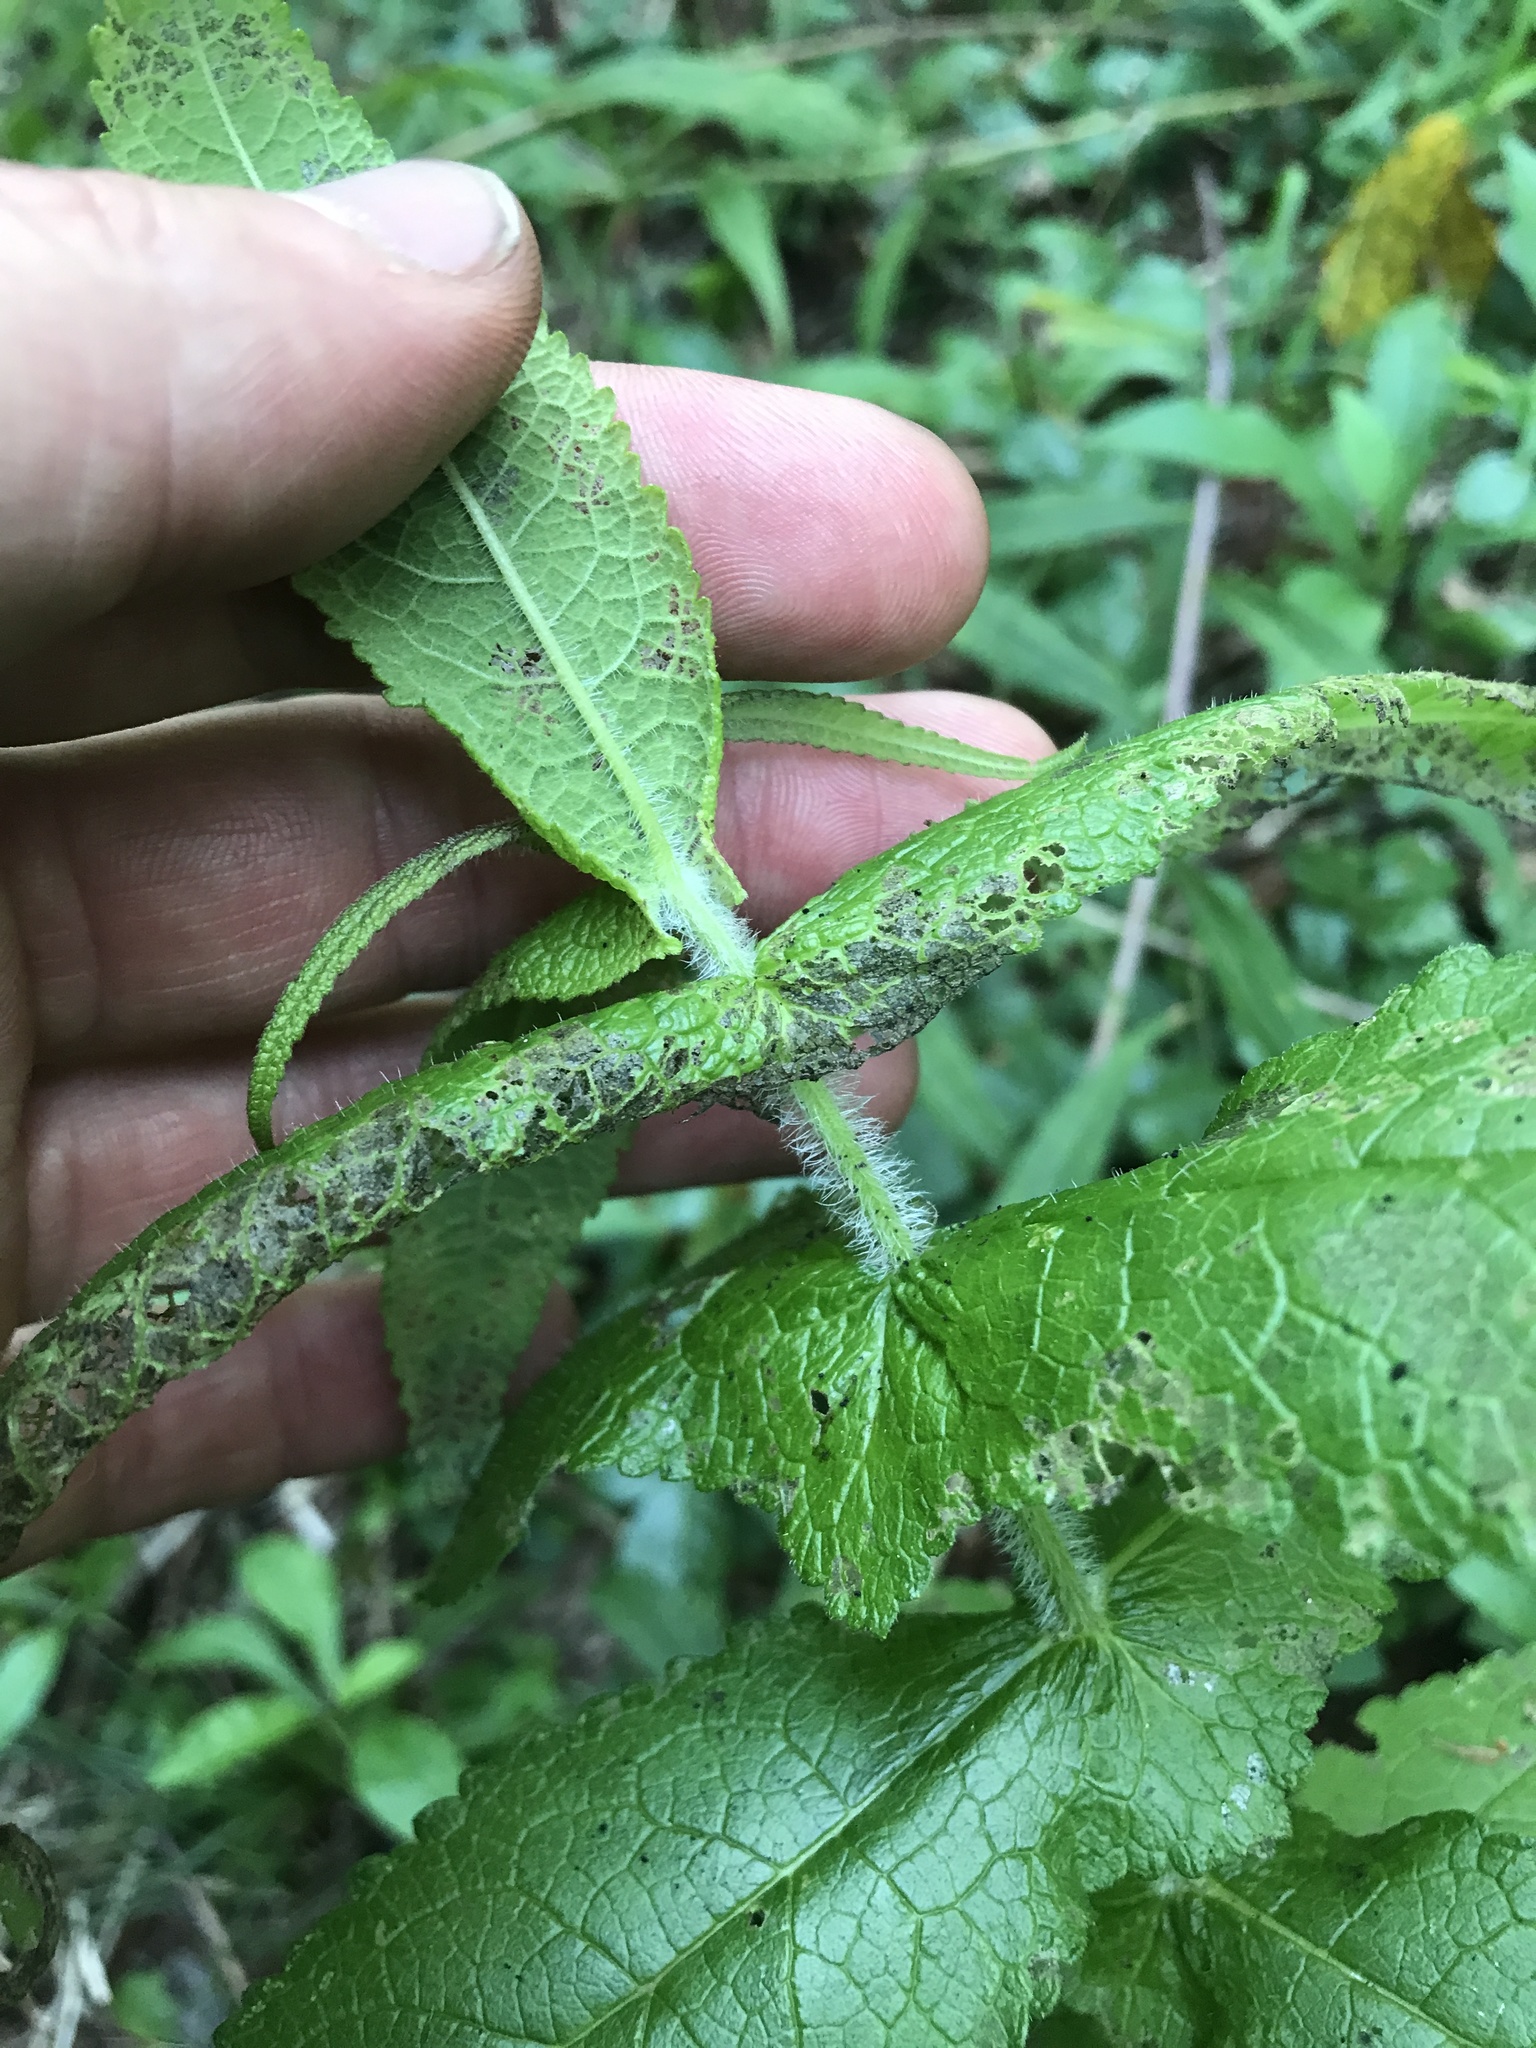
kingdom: Plantae
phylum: Tracheophyta
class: Magnoliopsida
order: Asterales
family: Asteraceae
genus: Eupatorium
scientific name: Eupatorium perfoliatum
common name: Boneset
